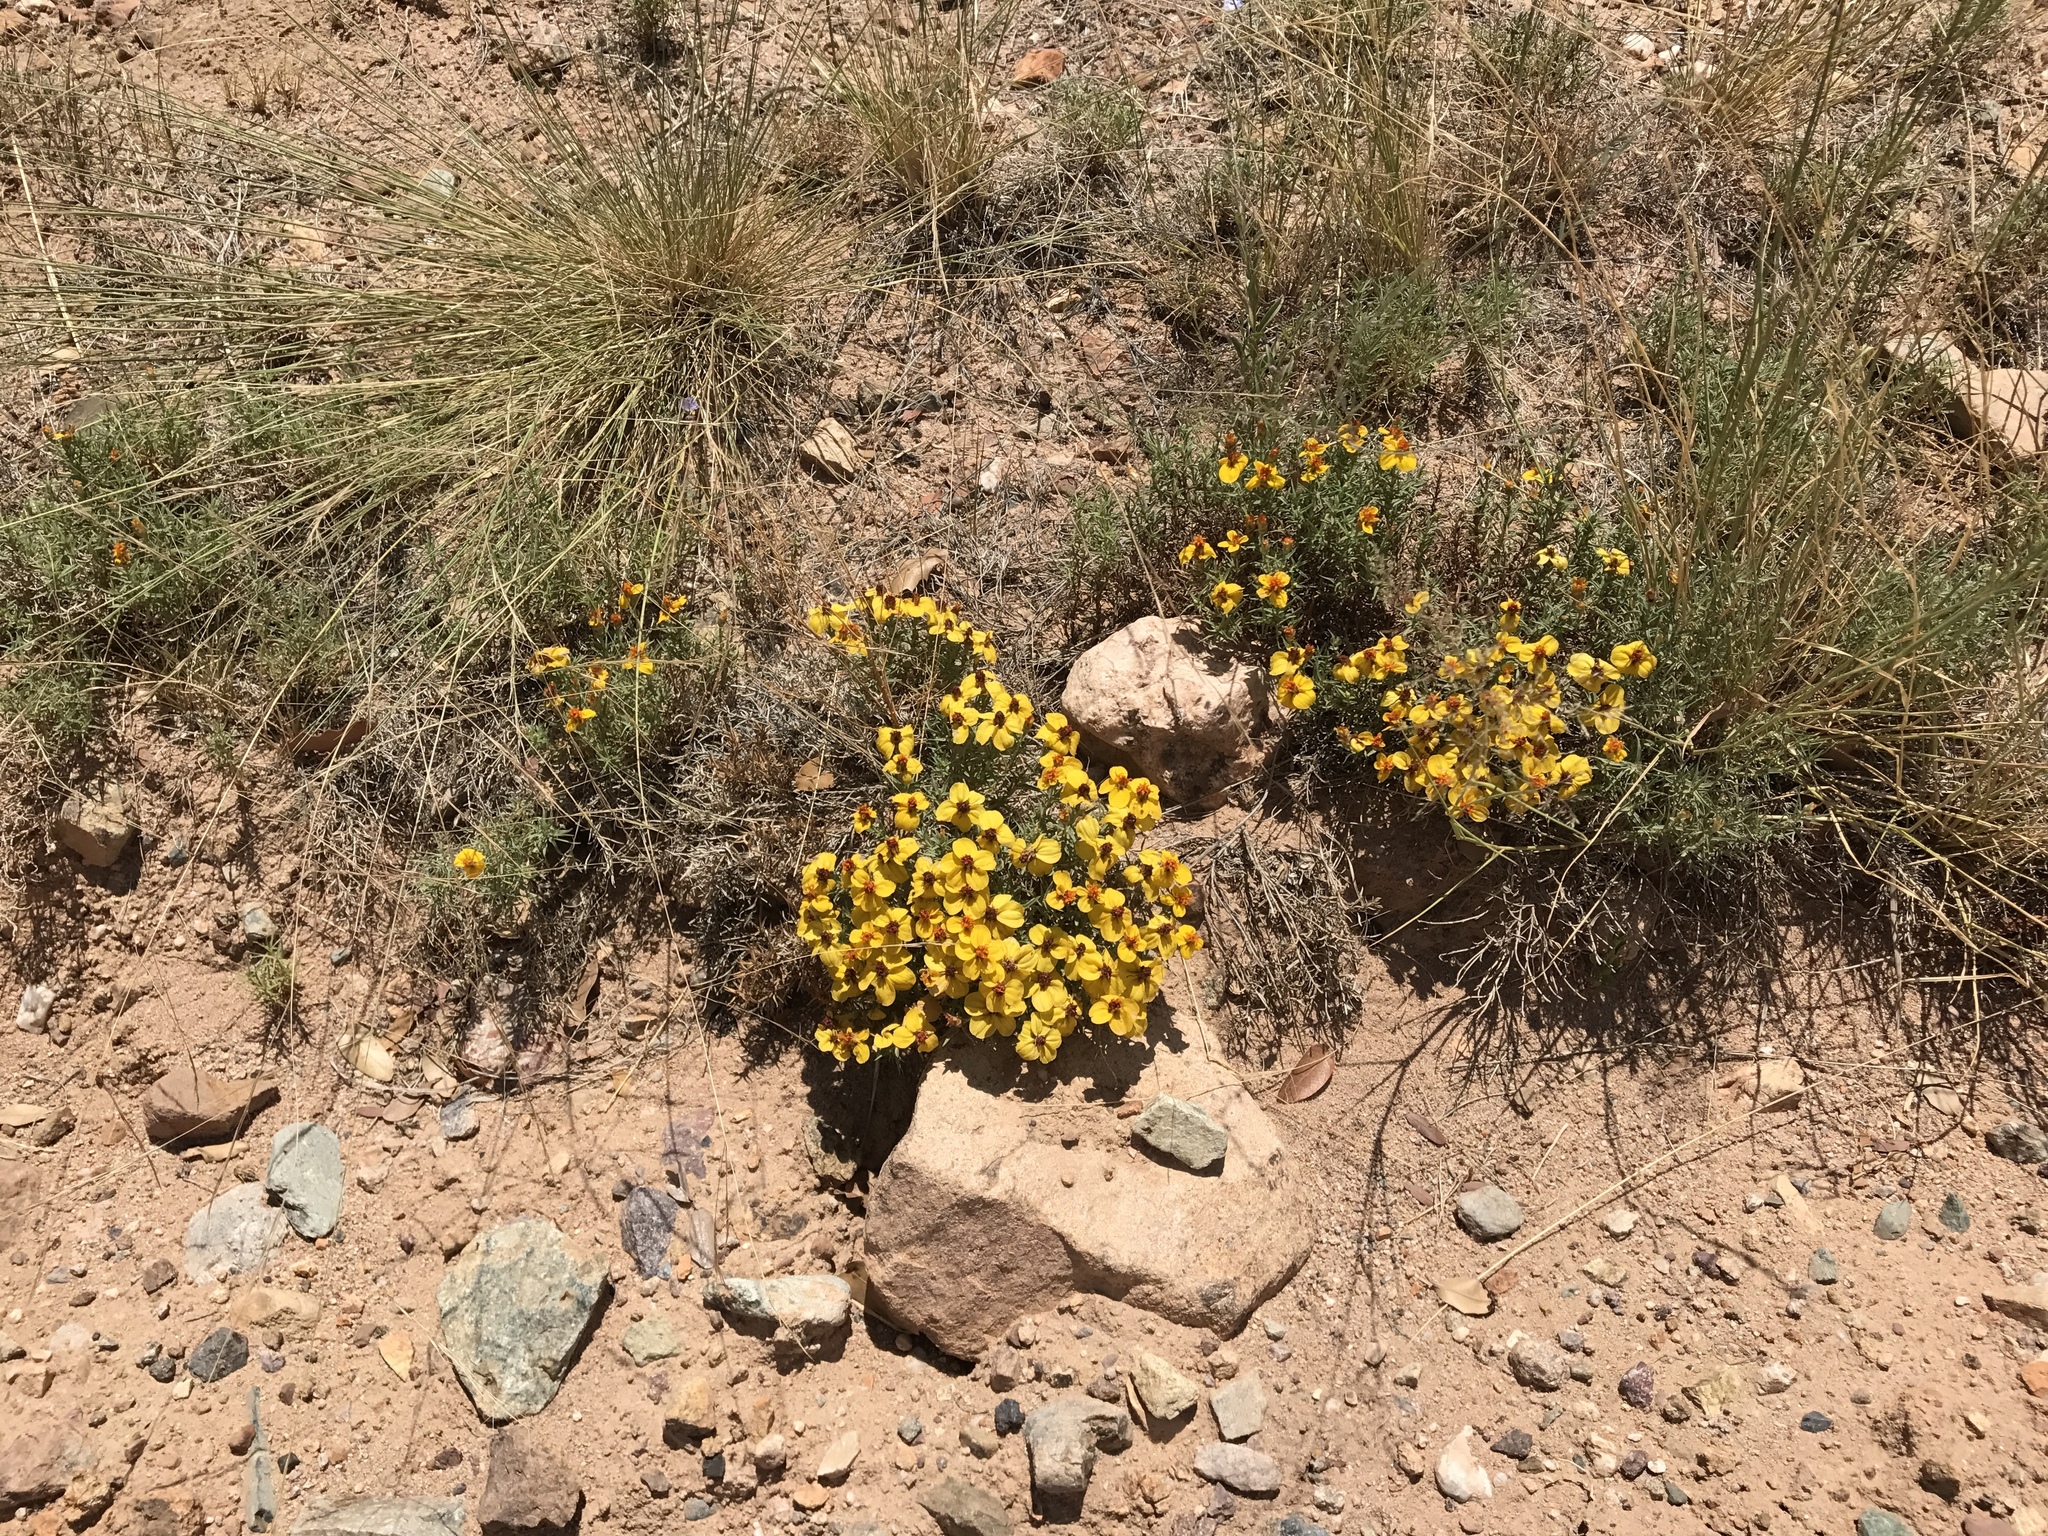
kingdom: Plantae
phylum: Tracheophyta
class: Magnoliopsida
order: Asterales
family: Asteraceae
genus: Zinnia
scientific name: Zinnia grandiflora
